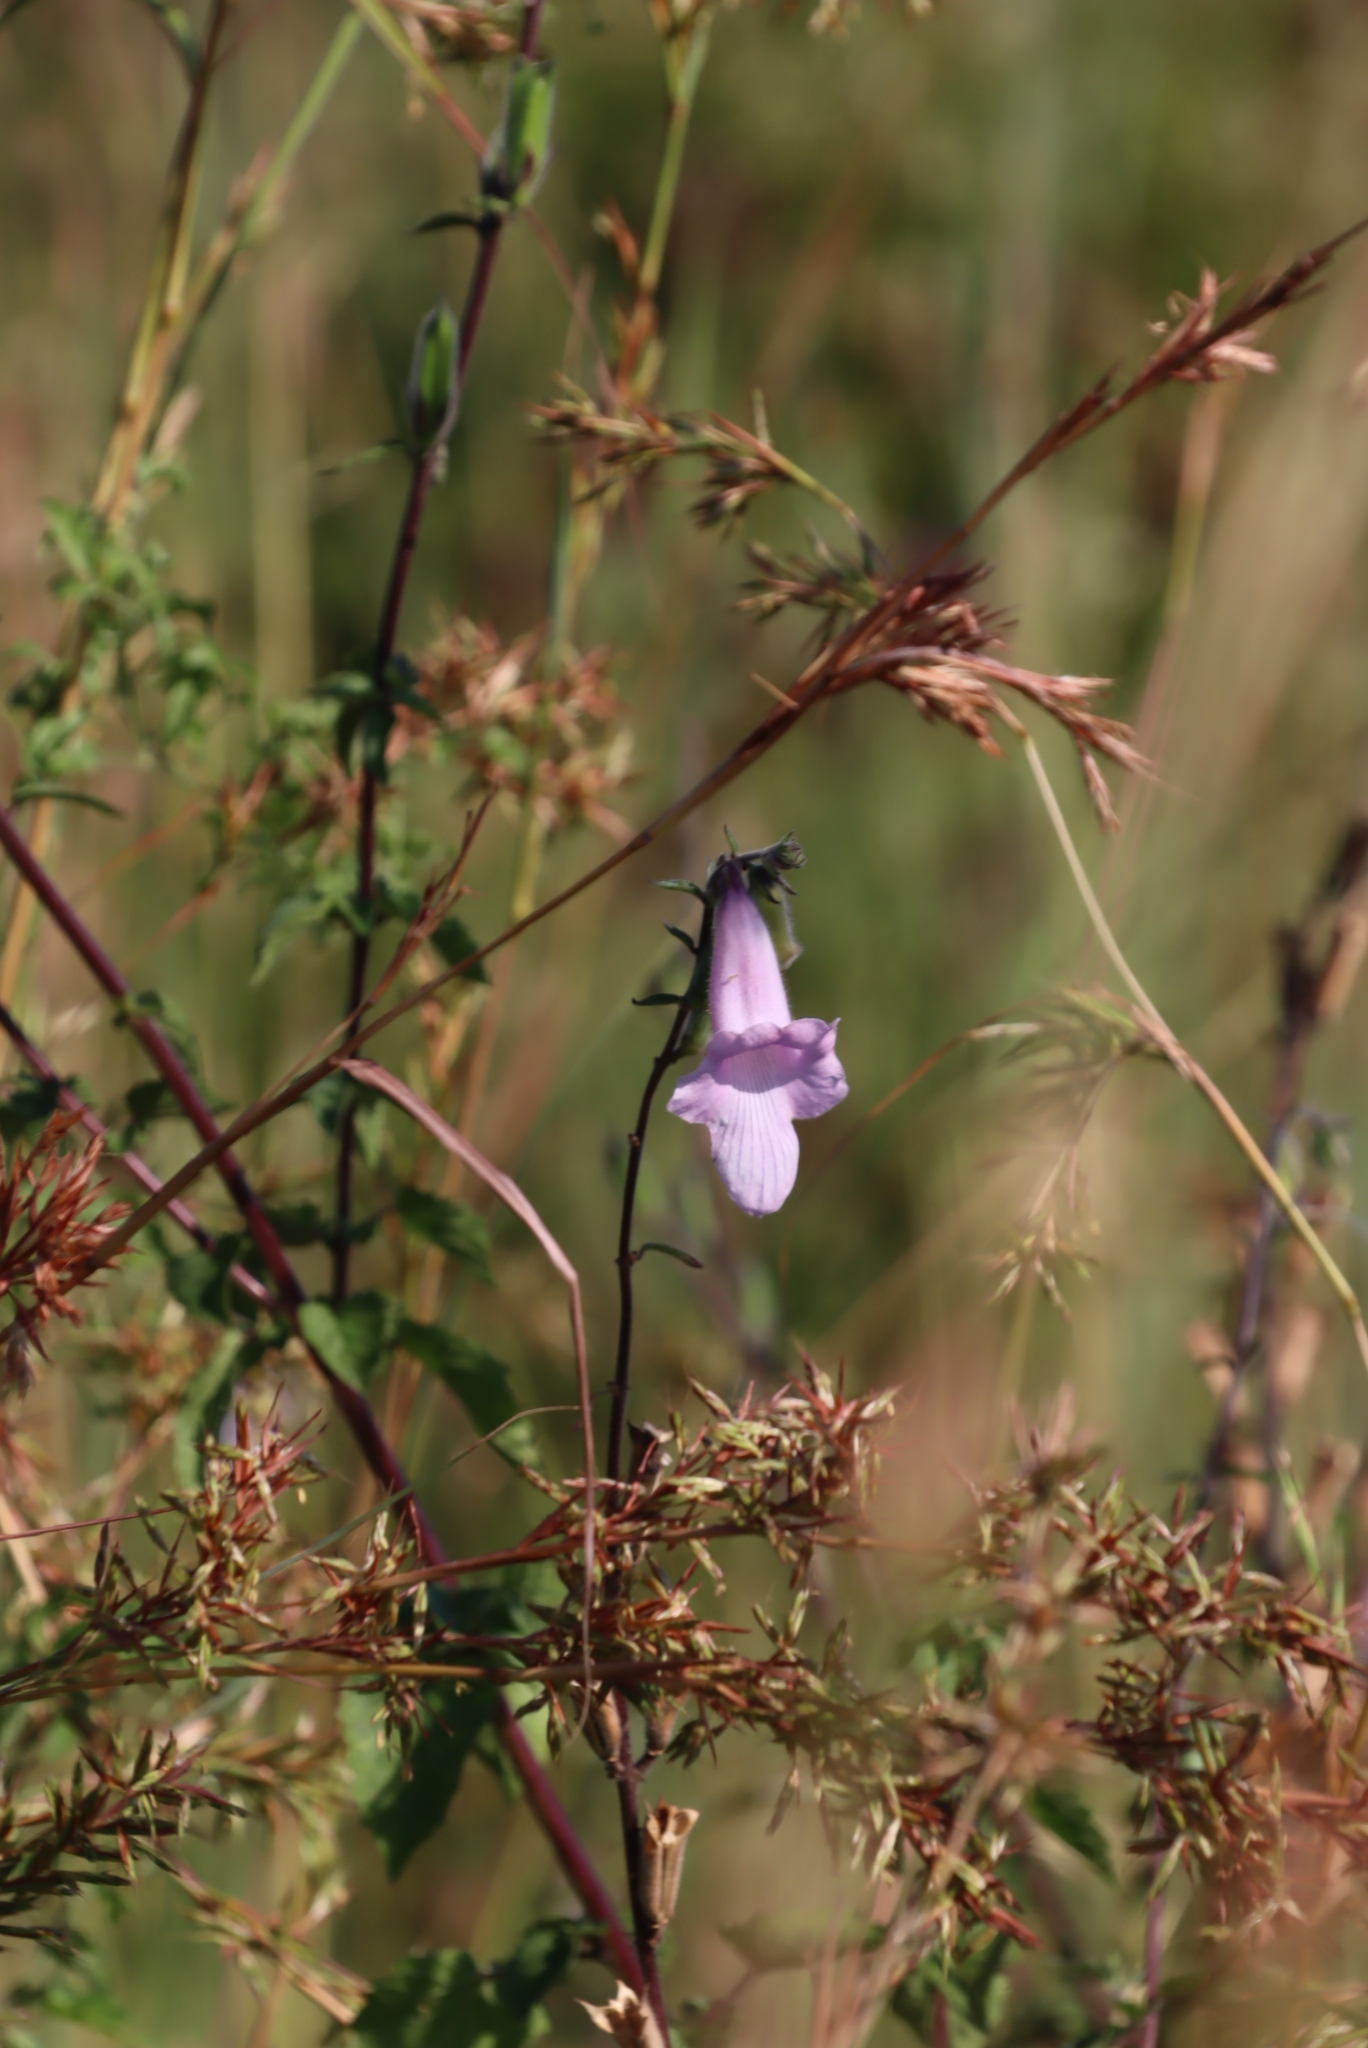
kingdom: Plantae
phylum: Tracheophyta
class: Magnoliopsida
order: Lamiales
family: Pedaliaceae
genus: Sesamum
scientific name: Sesamum trilobum
